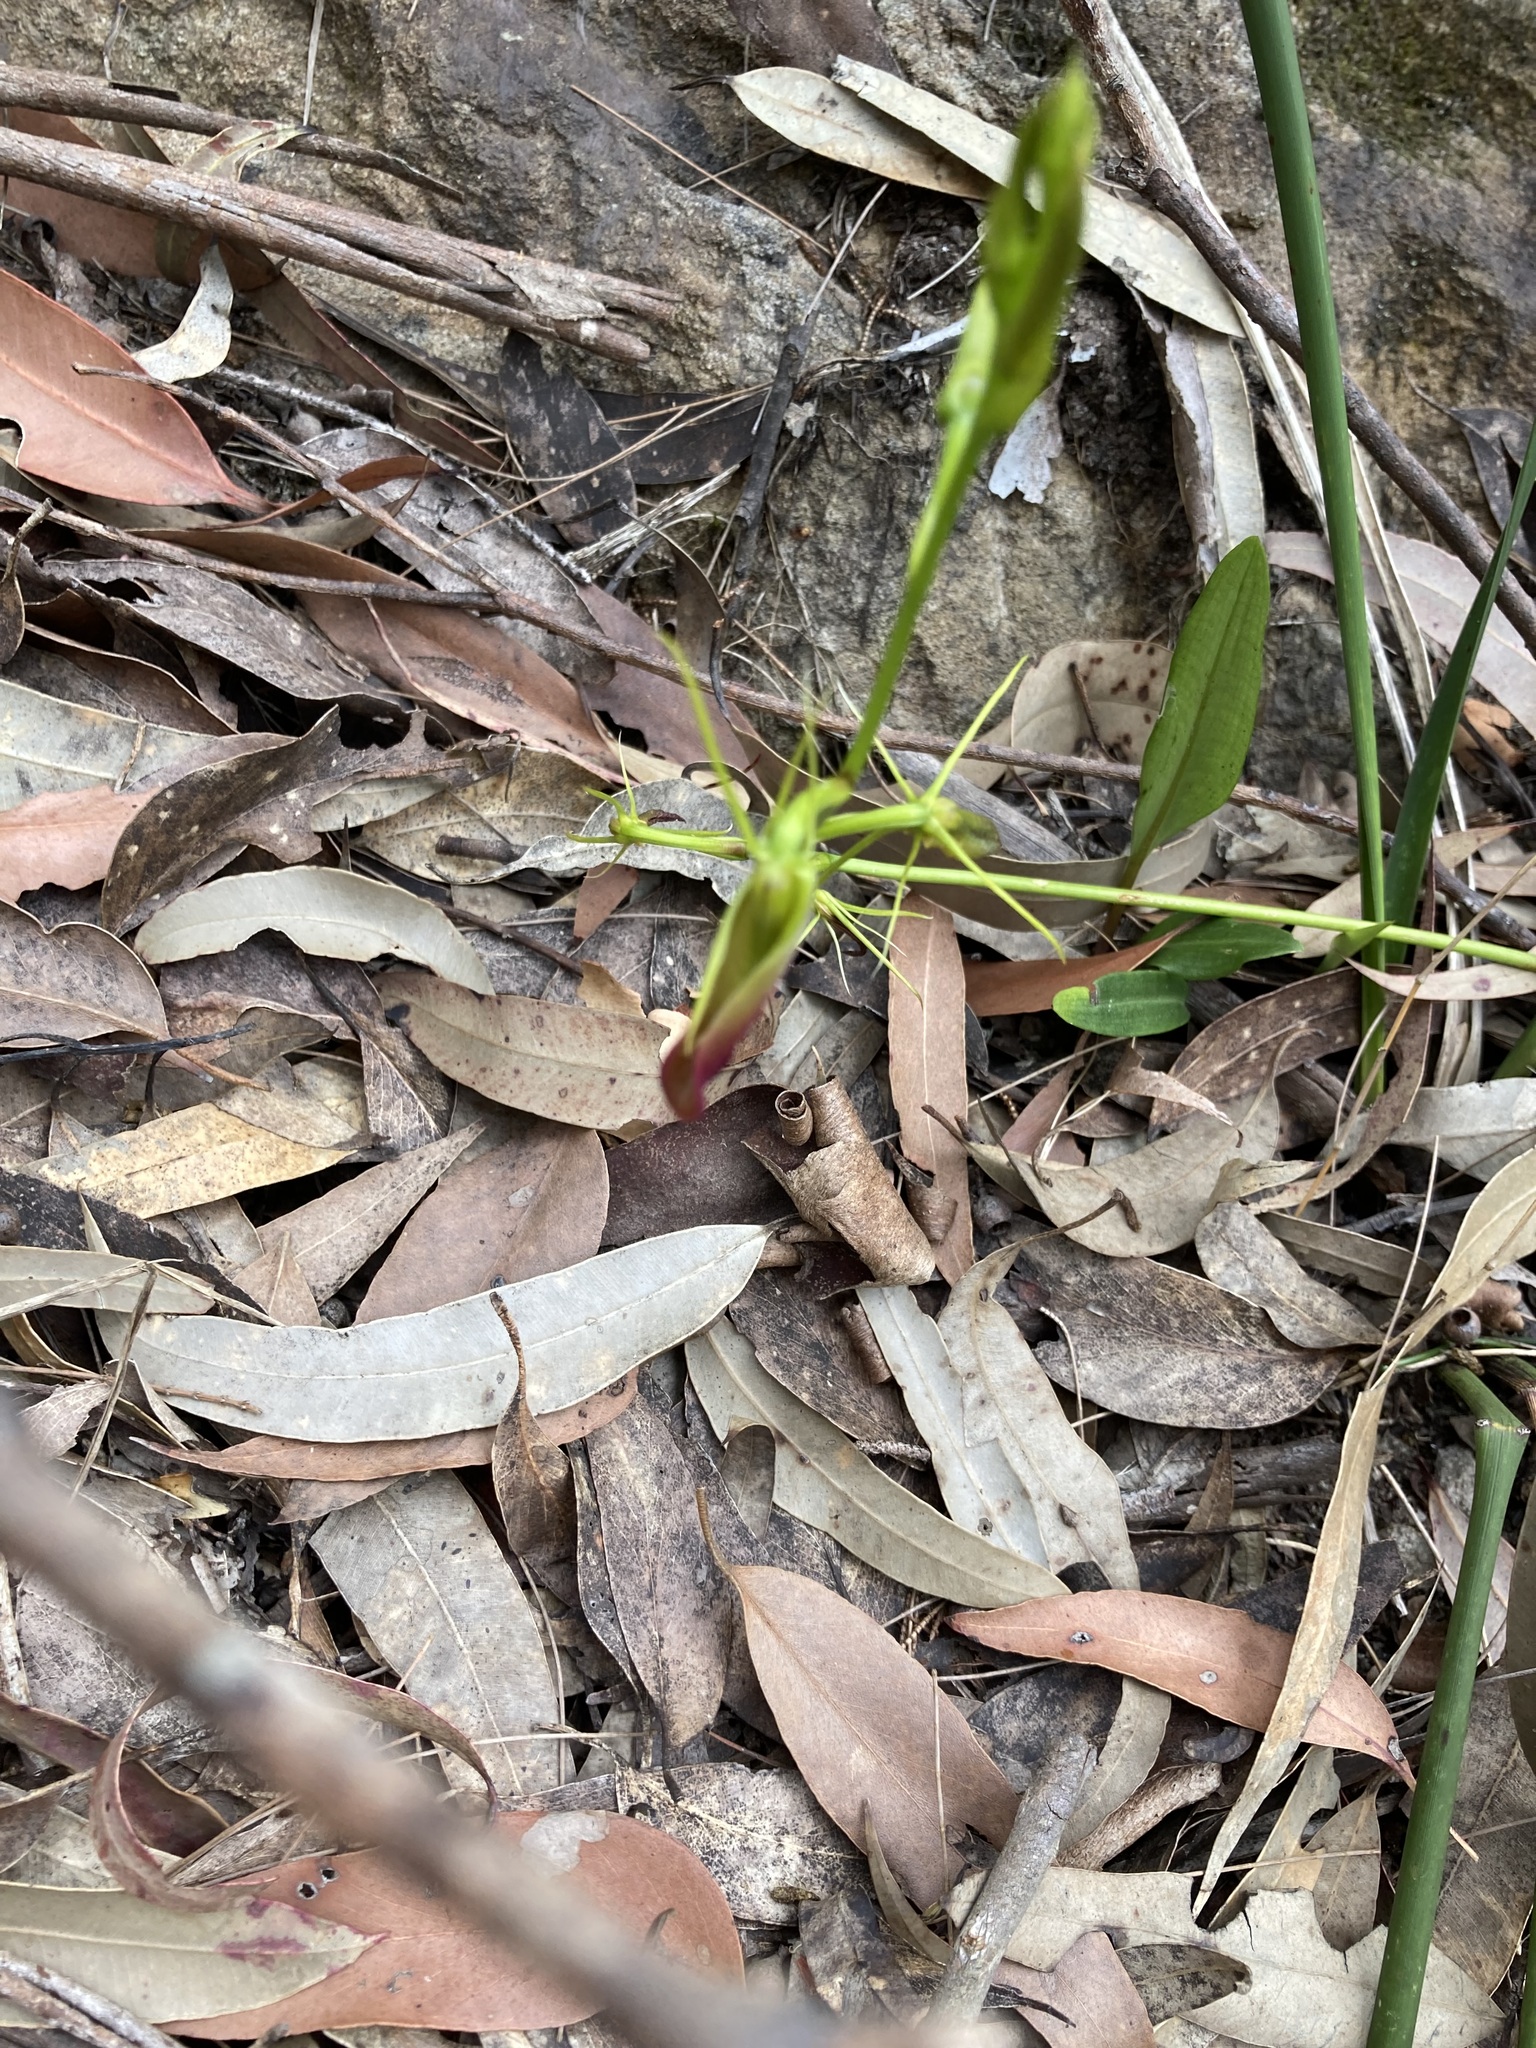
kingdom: Plantae
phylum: Tracheophyta
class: Liliopsida
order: Asparagales
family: Orchidaceae
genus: Cryptostylis
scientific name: Cryptostylis subulata
